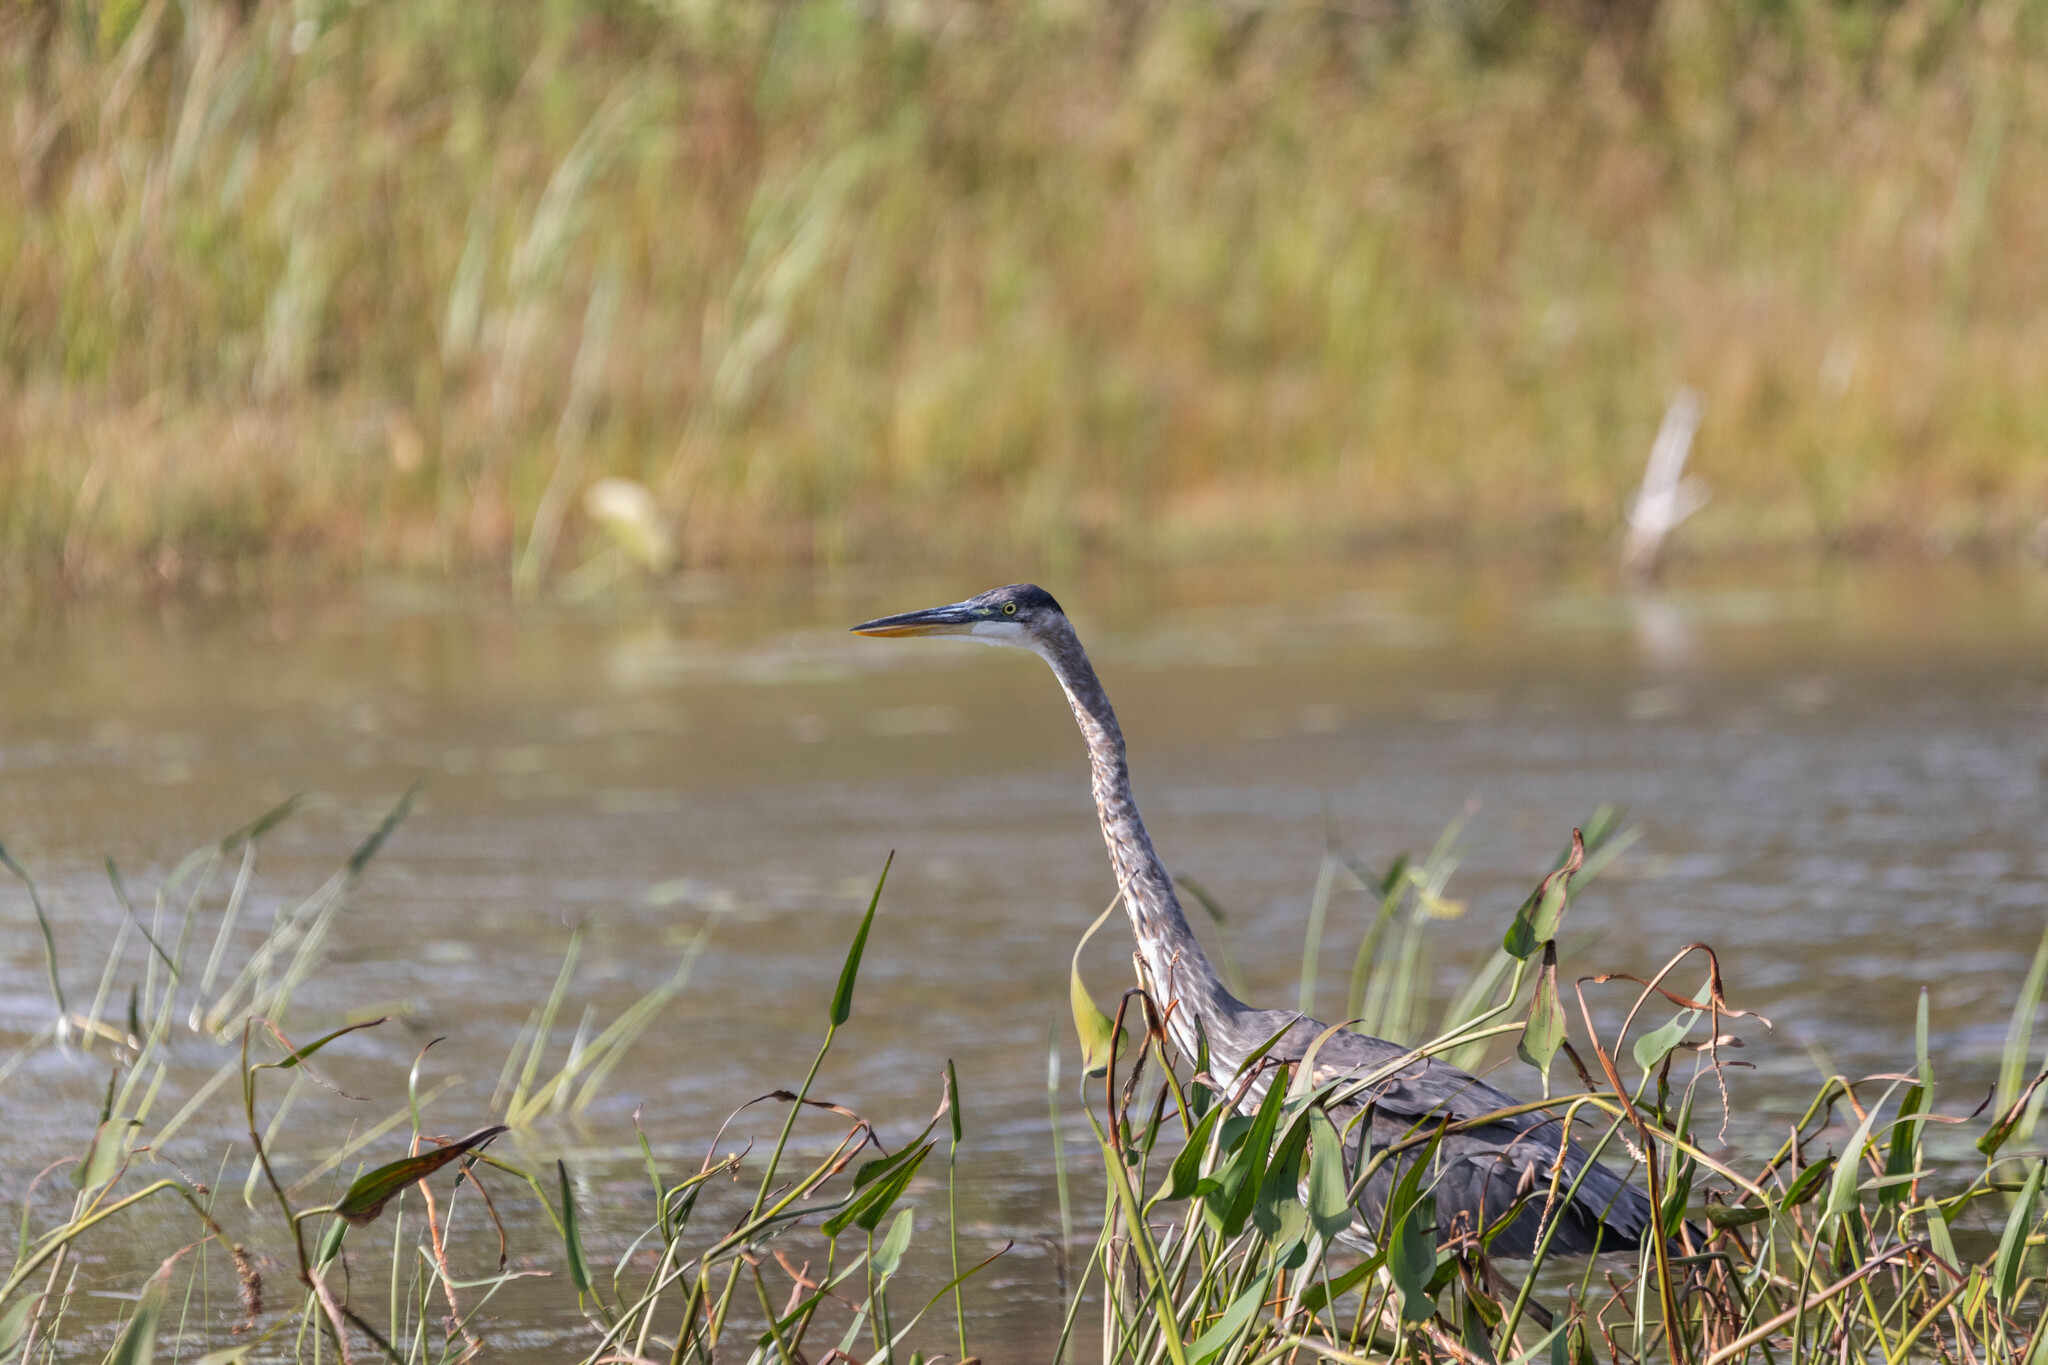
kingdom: Animalia
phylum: Chordata
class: Aves
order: Pelecaniformes
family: Ardeidae
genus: Ardea
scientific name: Ardea herodias
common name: Great blue heron
